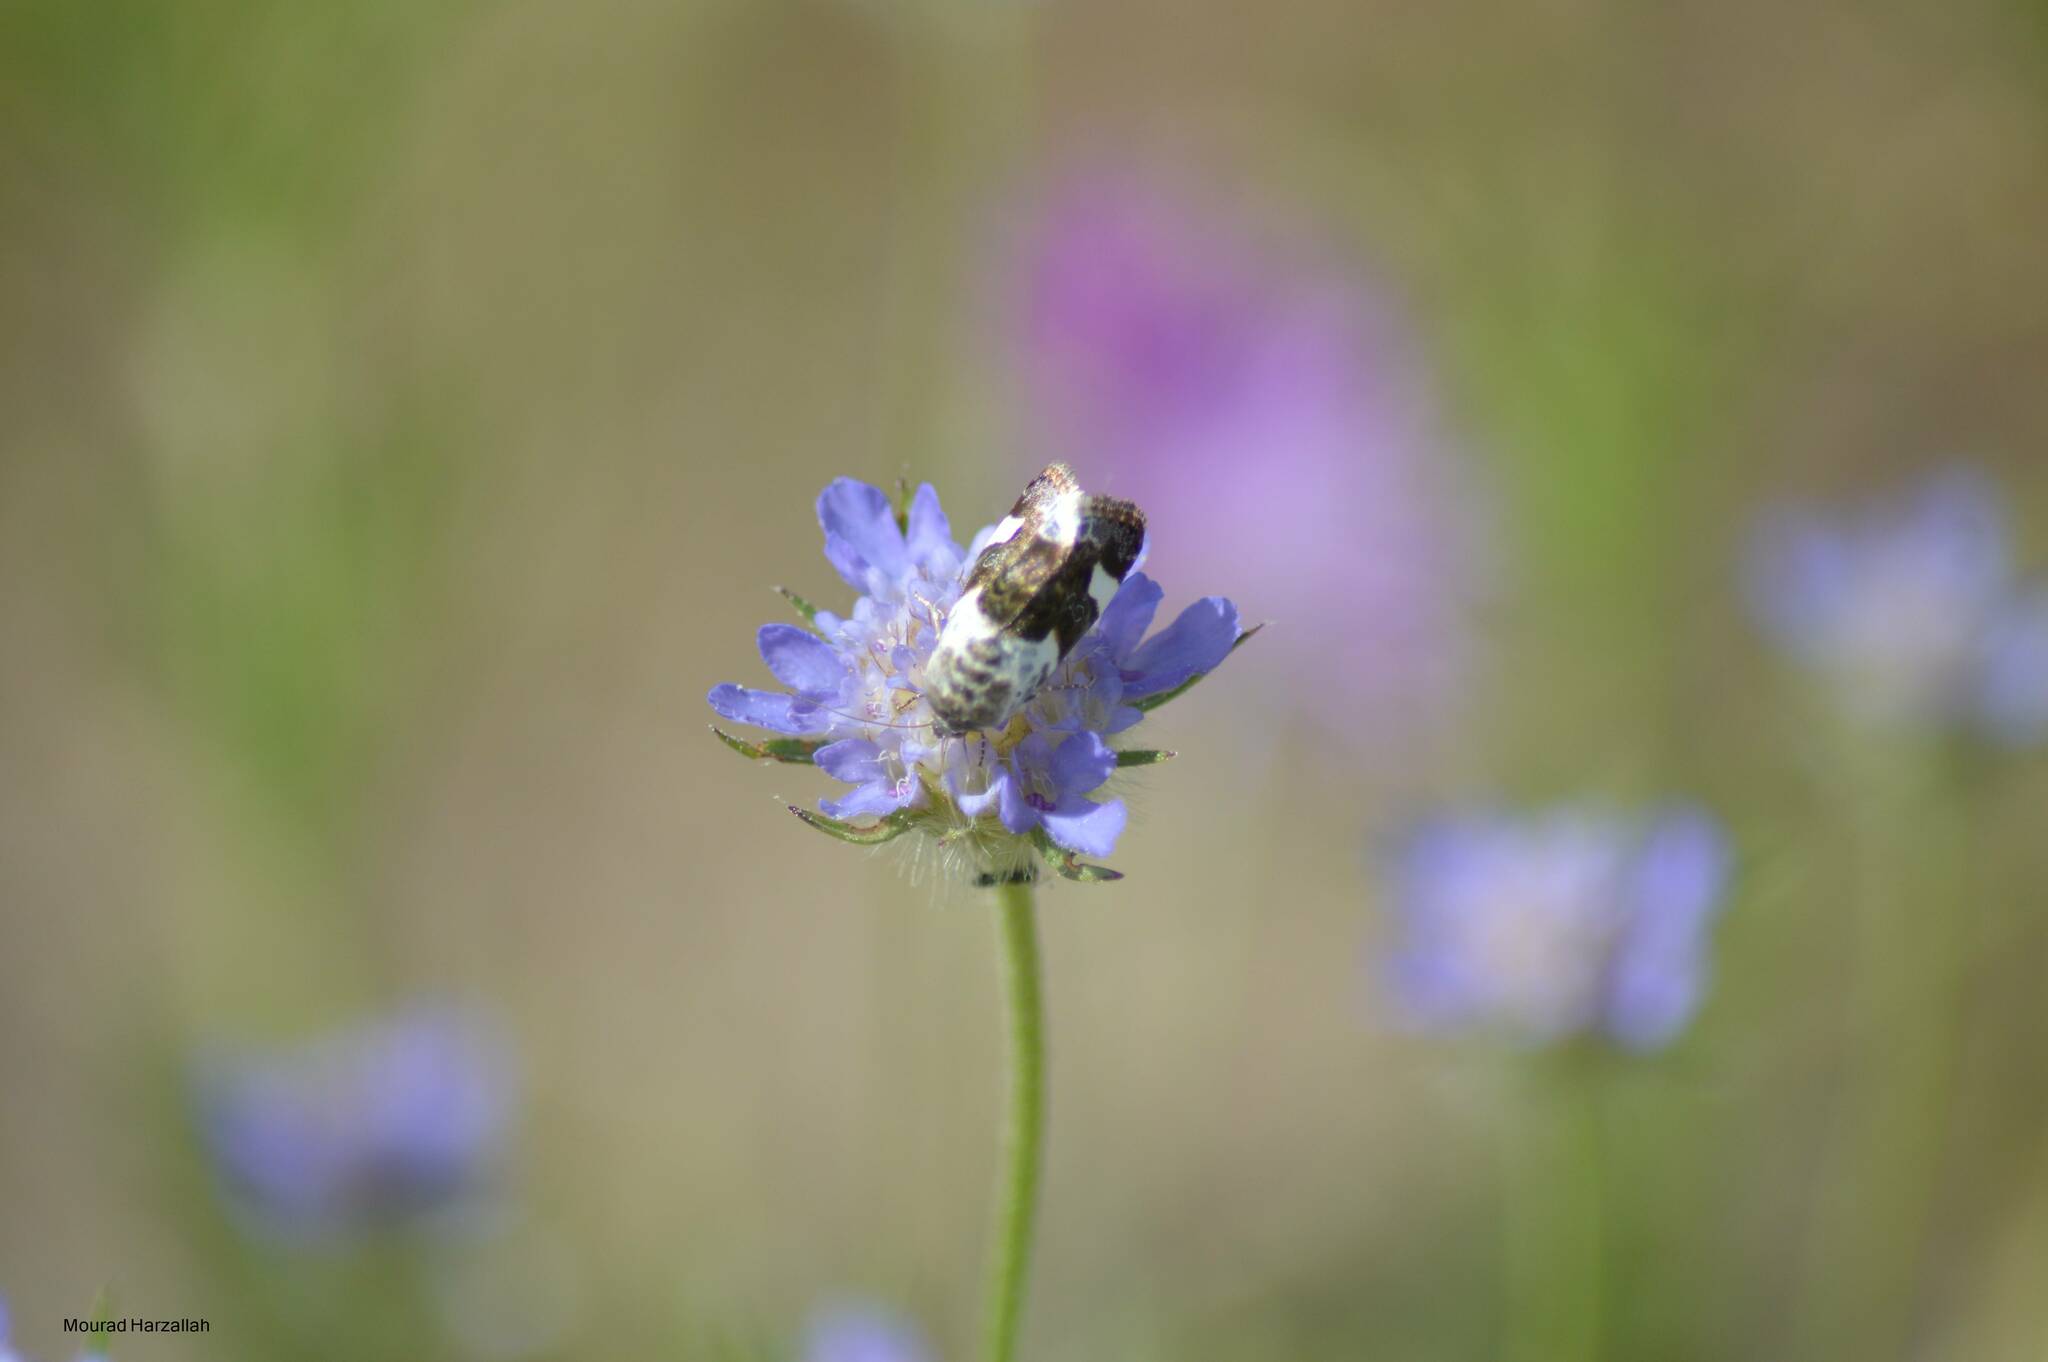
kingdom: Animalia
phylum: Arthropoda
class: Insecta
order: Lepidoptera
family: Noctuidae
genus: Acontia
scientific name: Acontia lucida
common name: Pale shoulder
